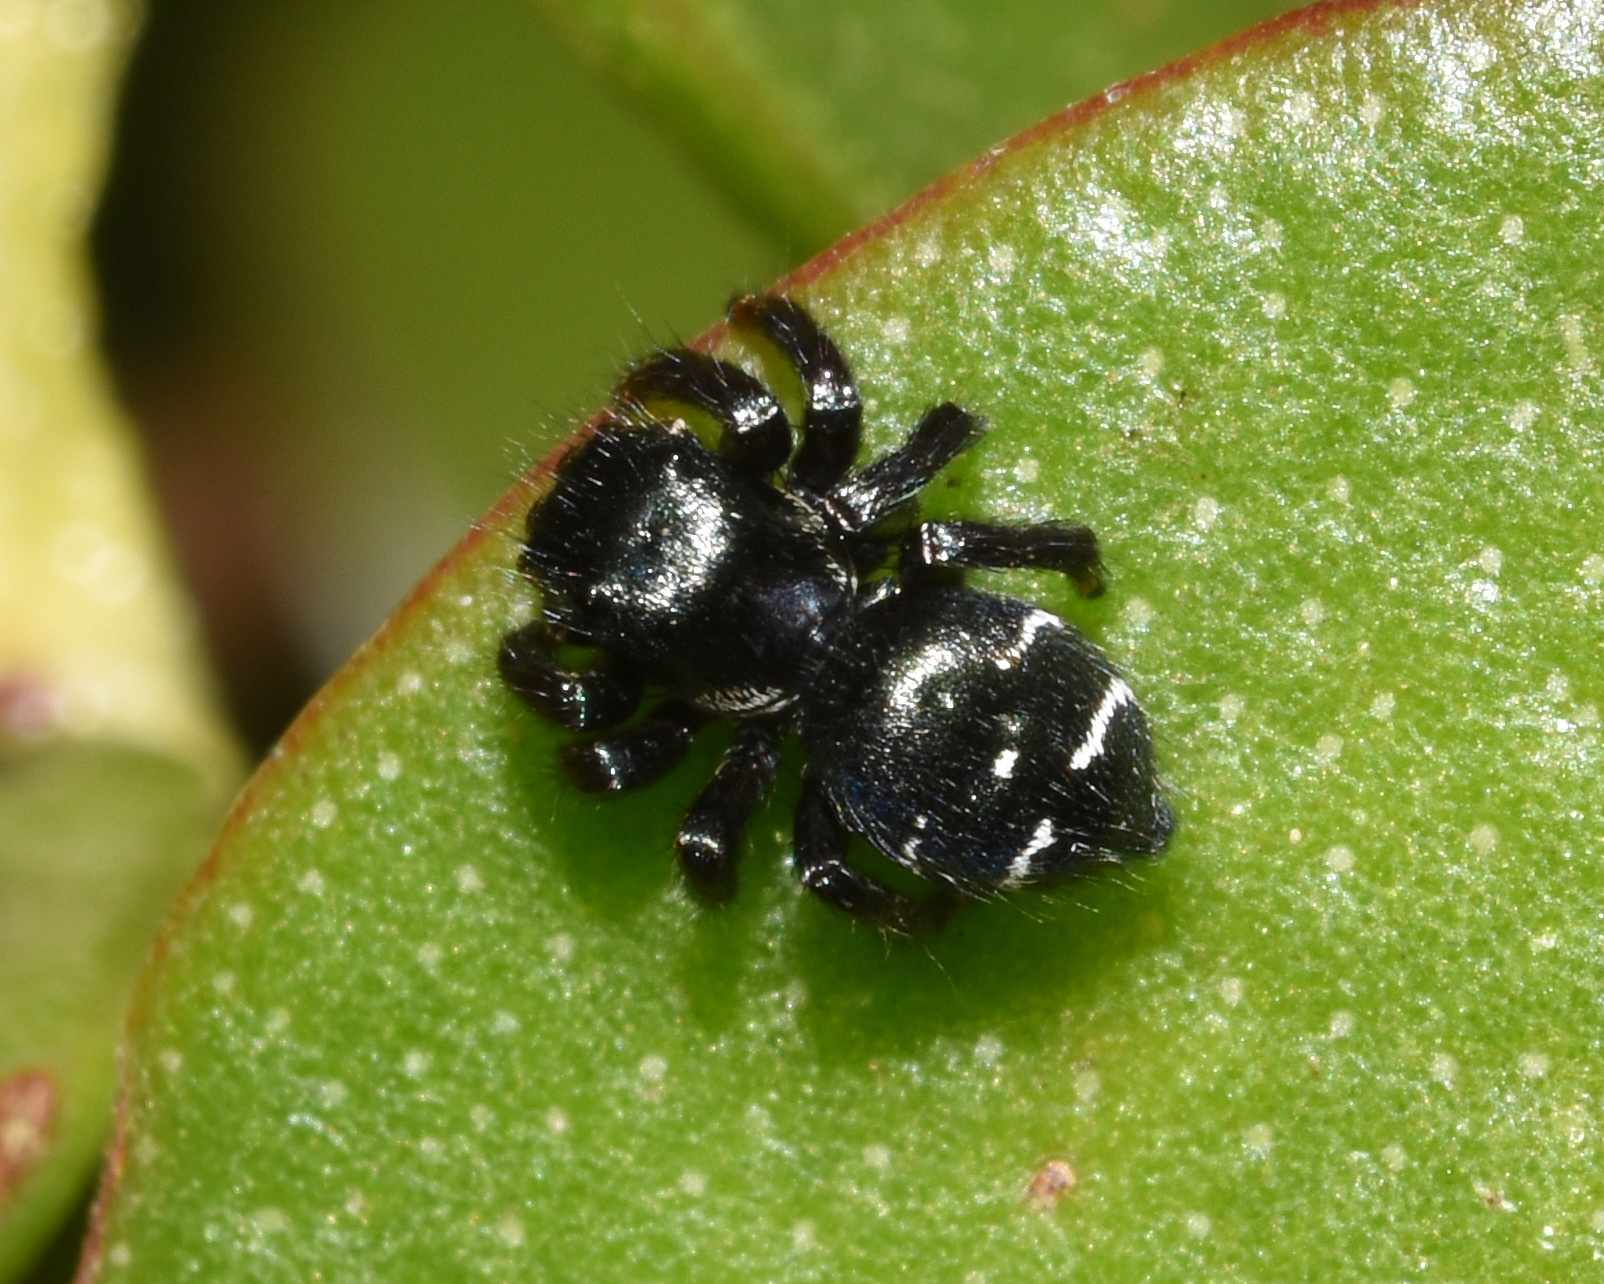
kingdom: Animalia
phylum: Arthropoda
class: Arachnida
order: Araneae
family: Salticidae
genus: Baryphas
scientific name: Baryphas ahenus
